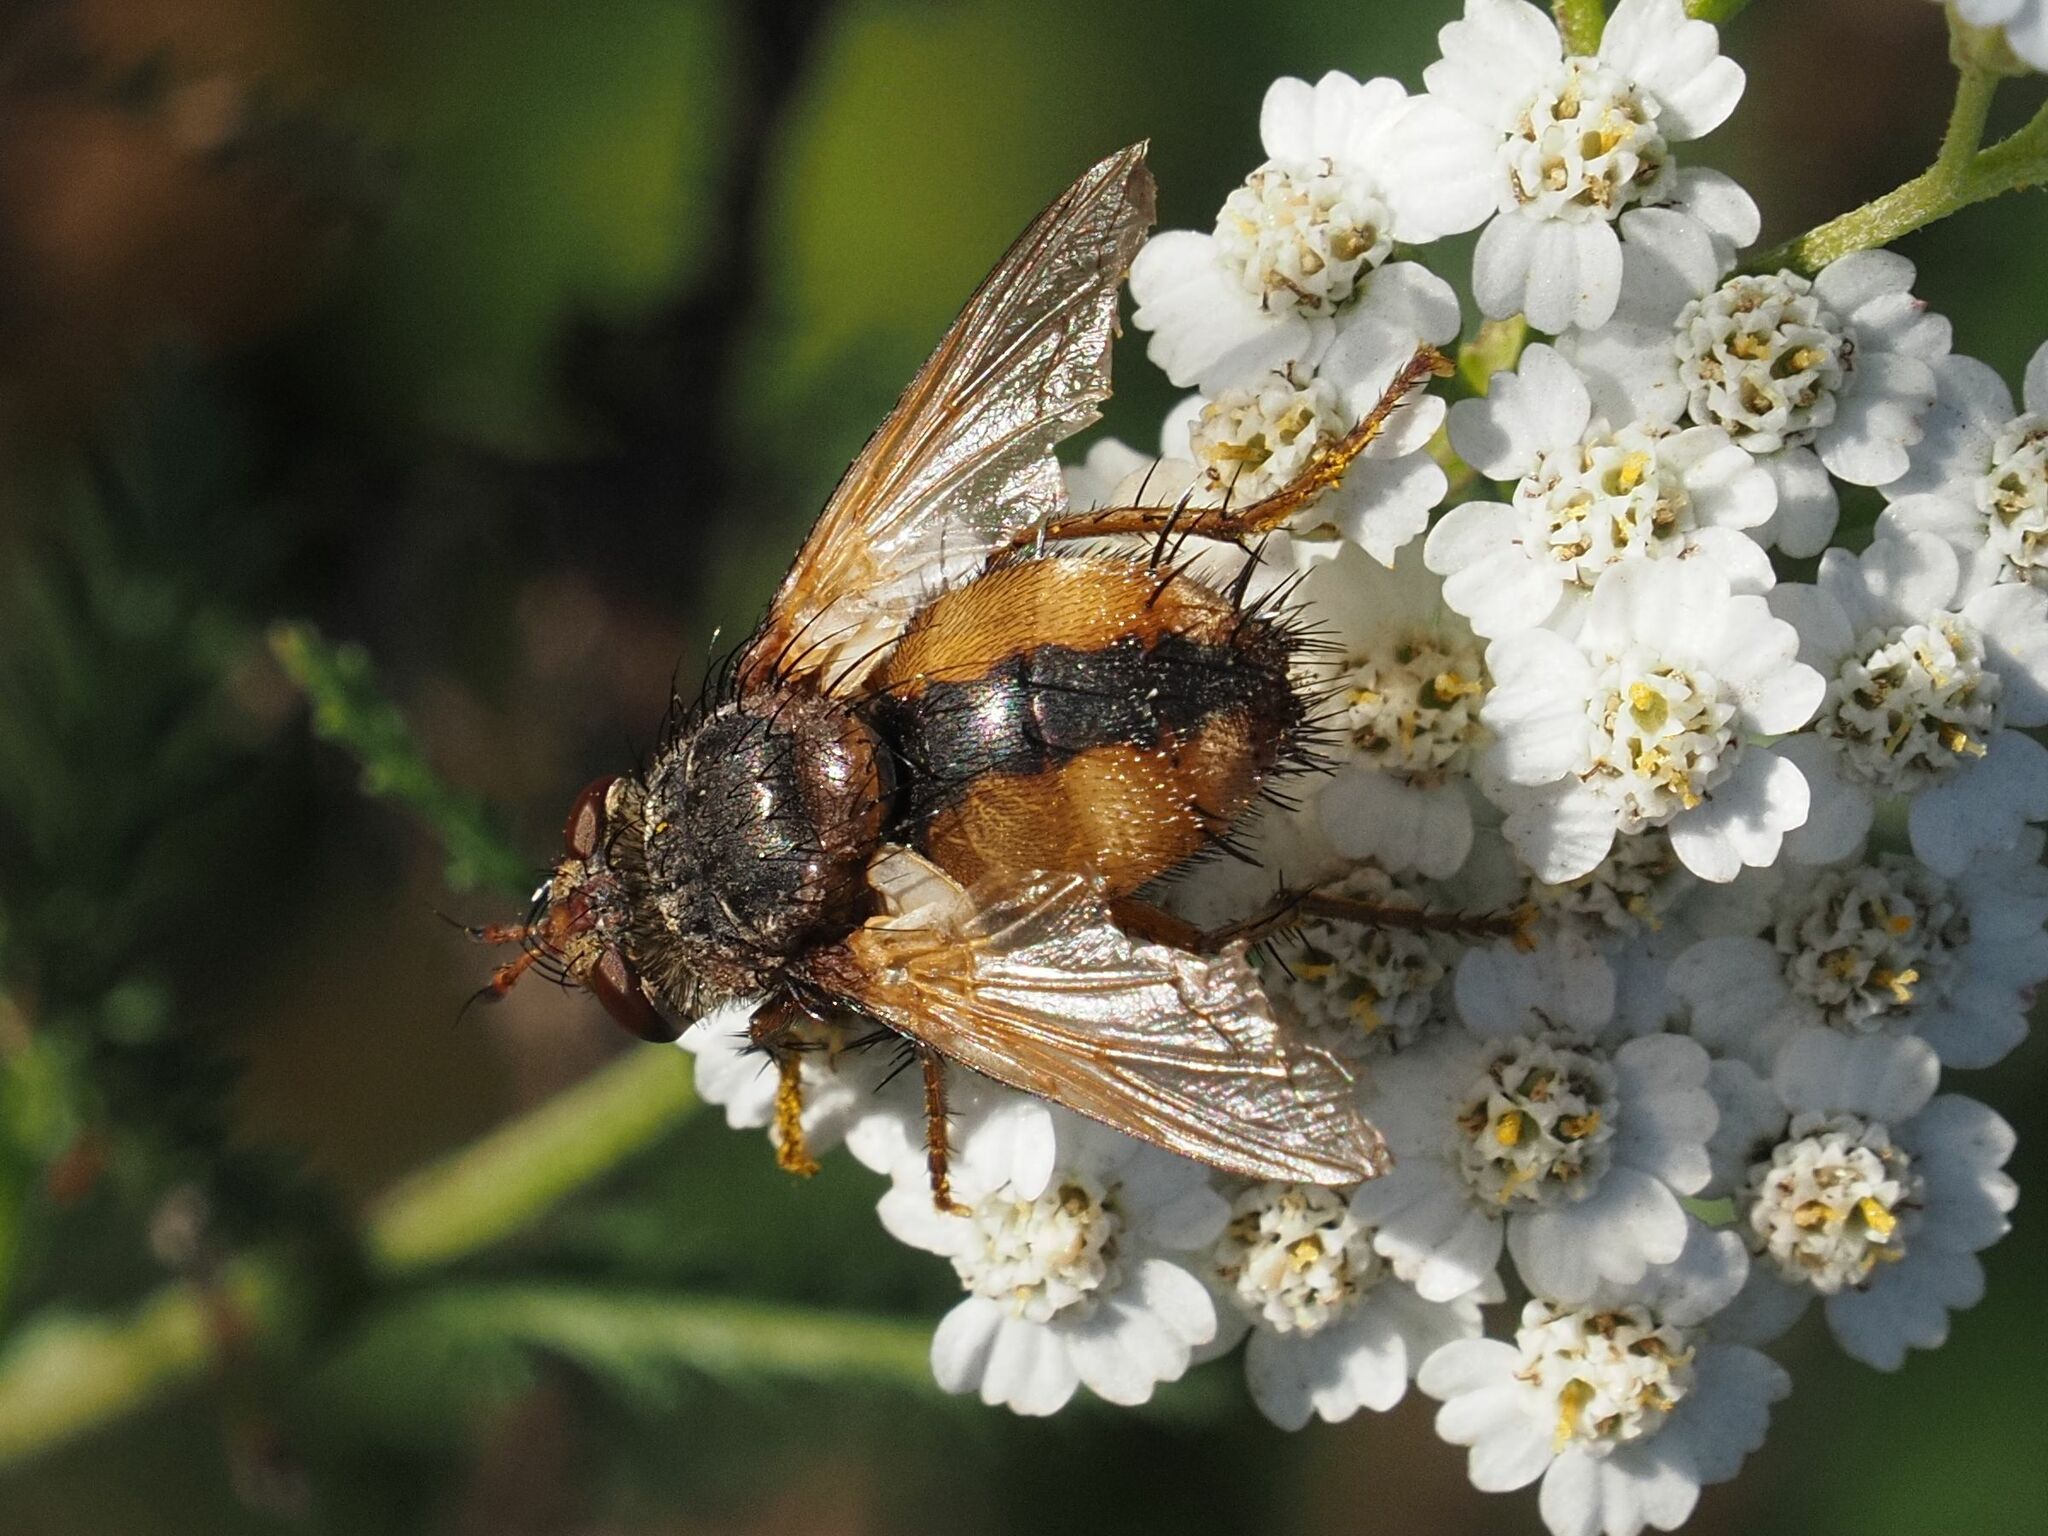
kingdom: Animalia
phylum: Arthropoda
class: Insecta
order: Diptera
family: Tachinidae
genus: Tachina
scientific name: Tachina fera
